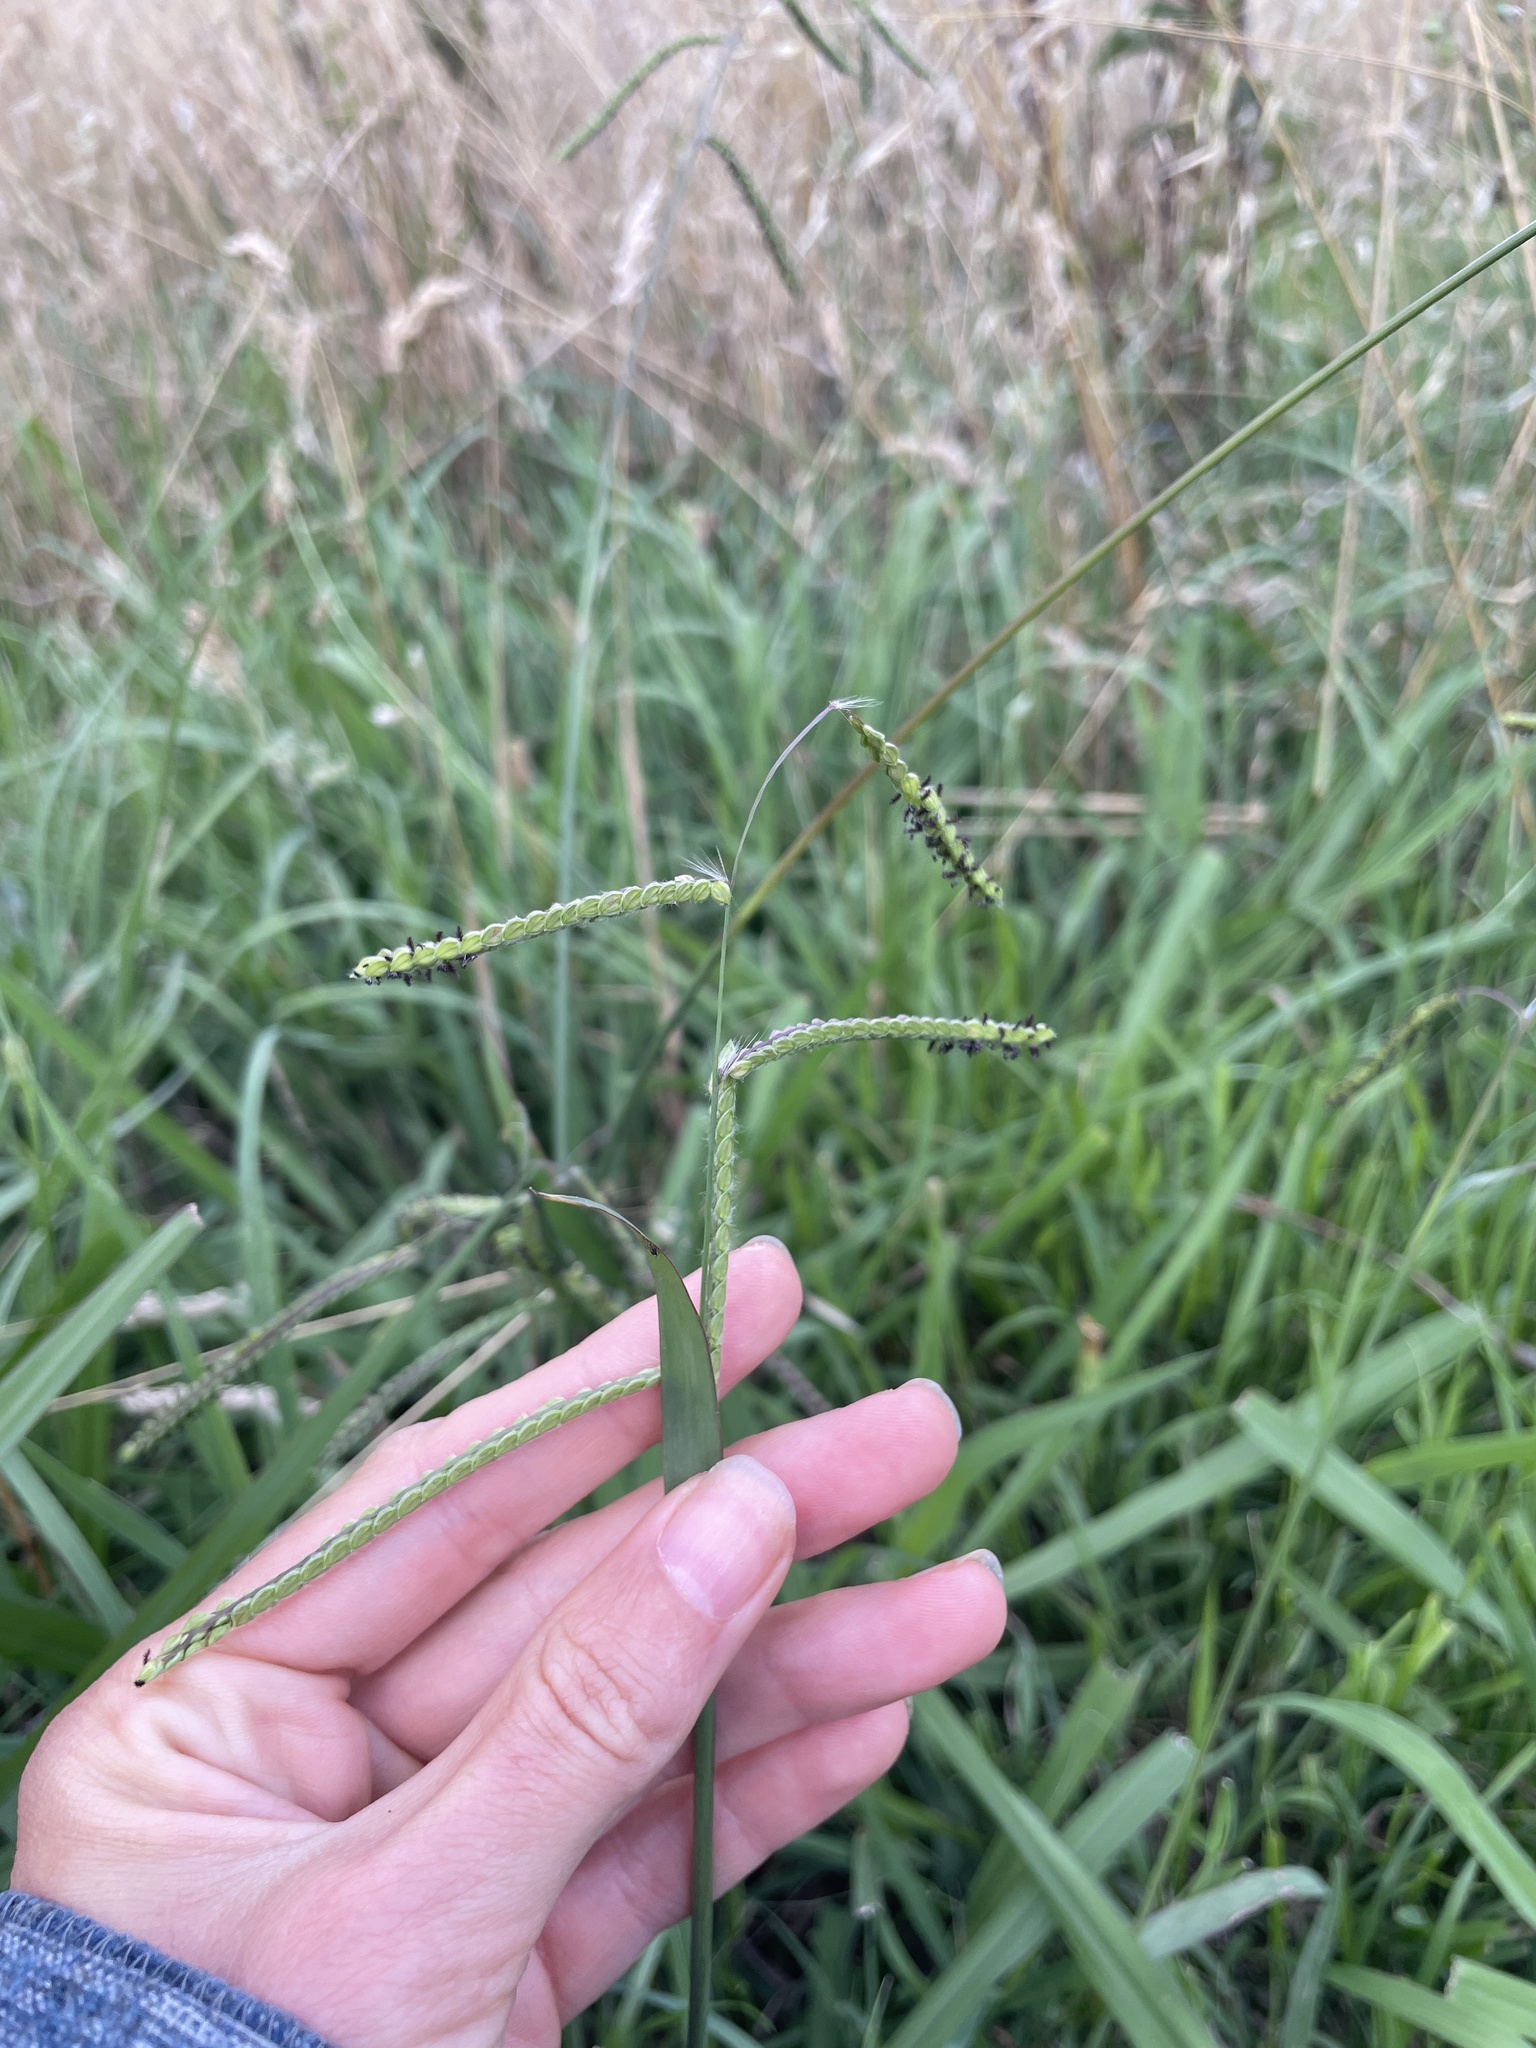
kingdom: Plantae
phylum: Tracheophyta
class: Liliopsida
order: Poales
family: Poaceae
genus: Paspalum
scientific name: Paspalum dilatatum
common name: Dallisgrass
